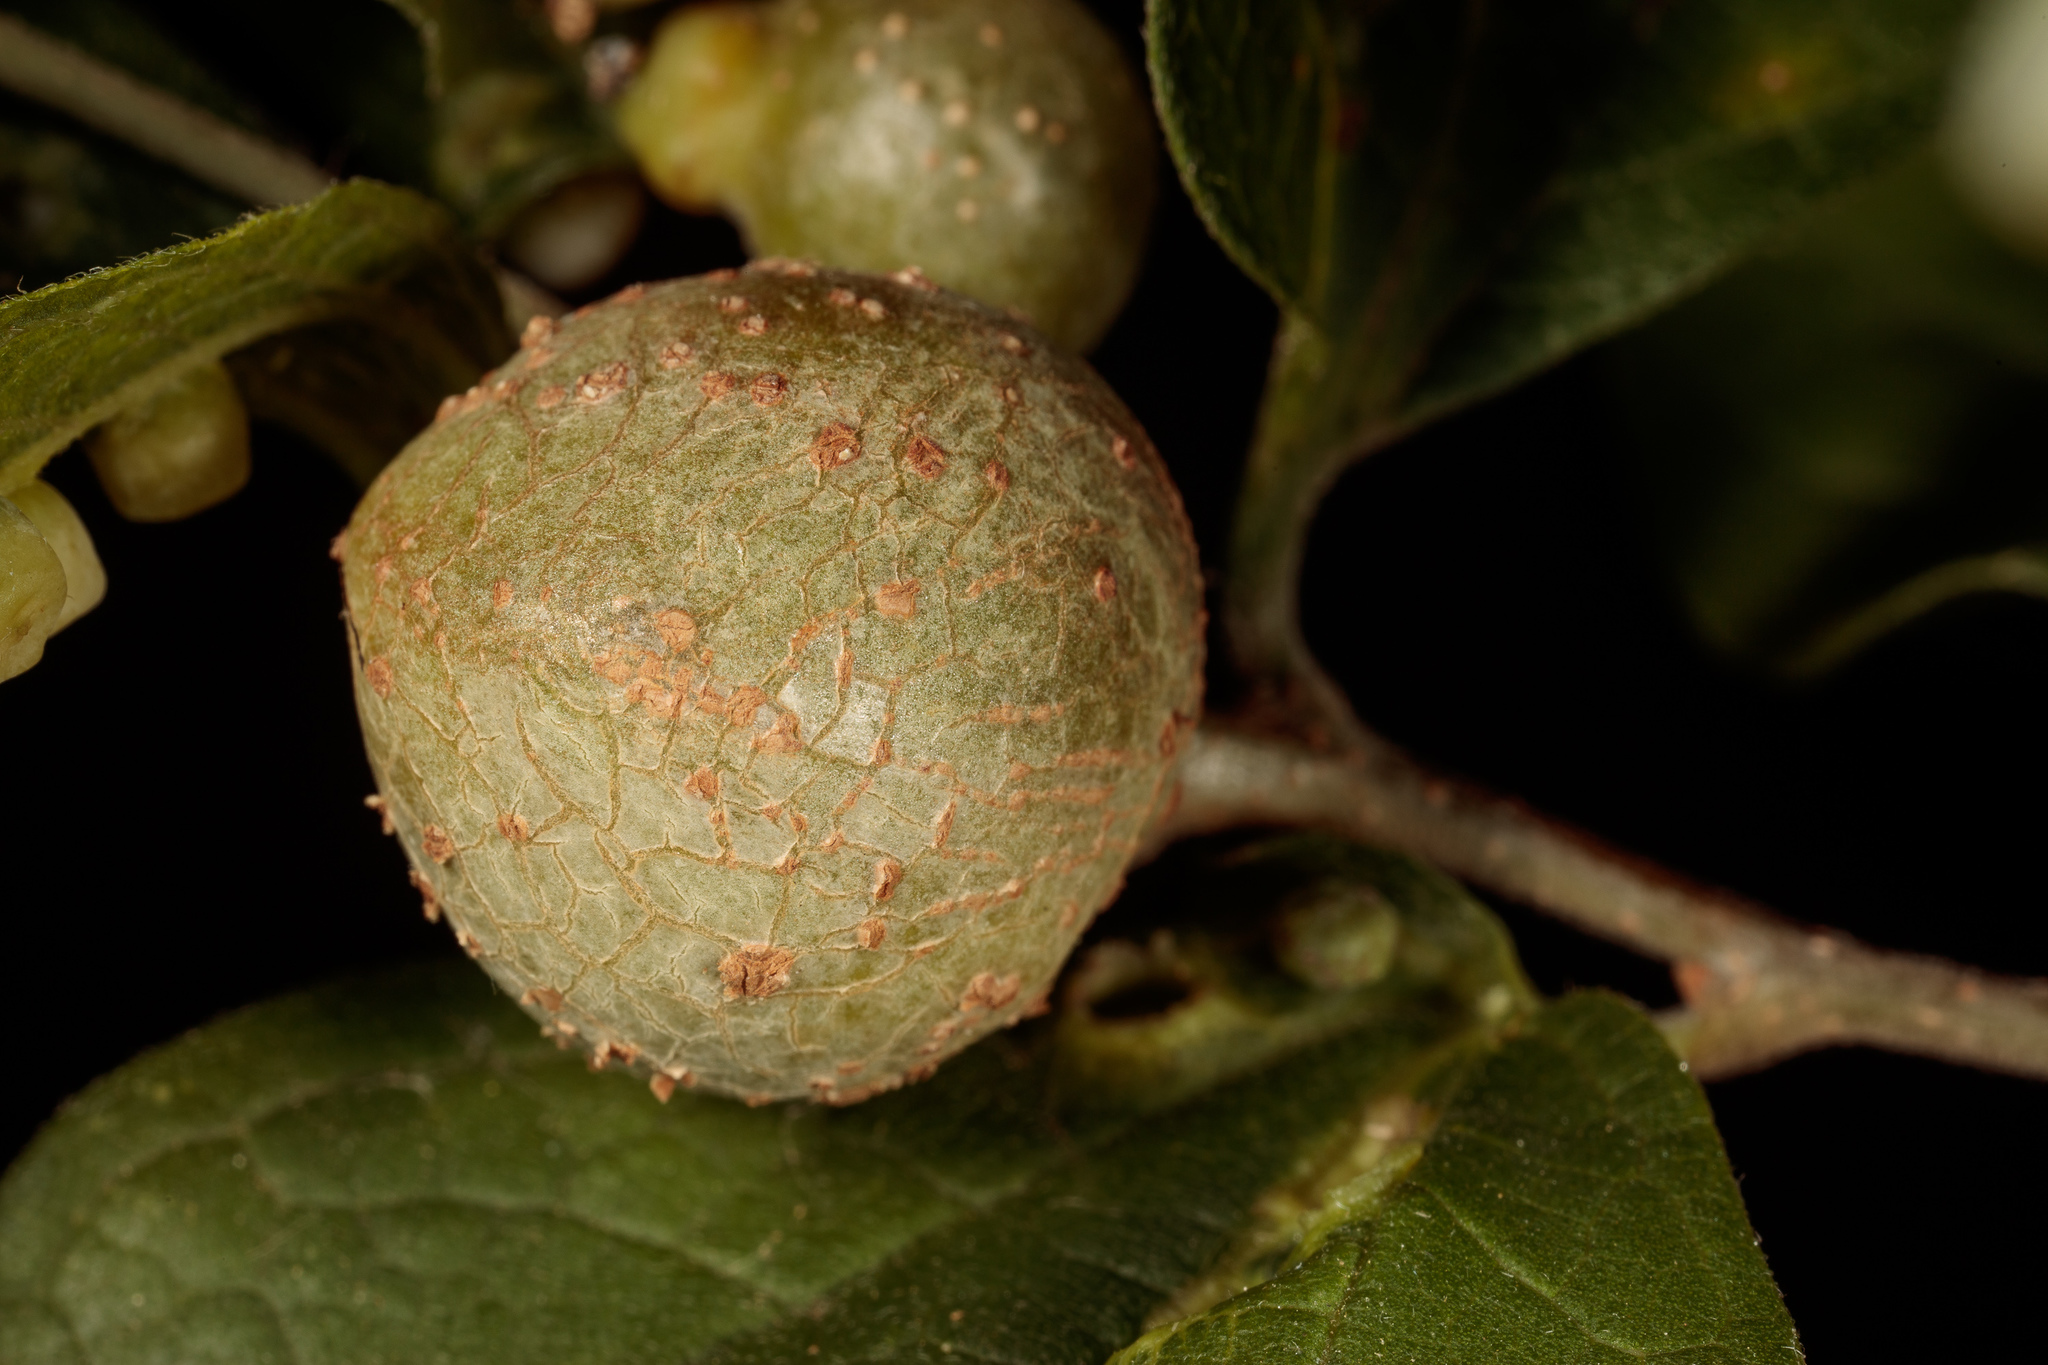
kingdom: Animalia
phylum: Arthropoda
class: Insecta
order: Hemiptera
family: Aphalaridae
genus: Pachypsylla
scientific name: Pachypsylla venusta
